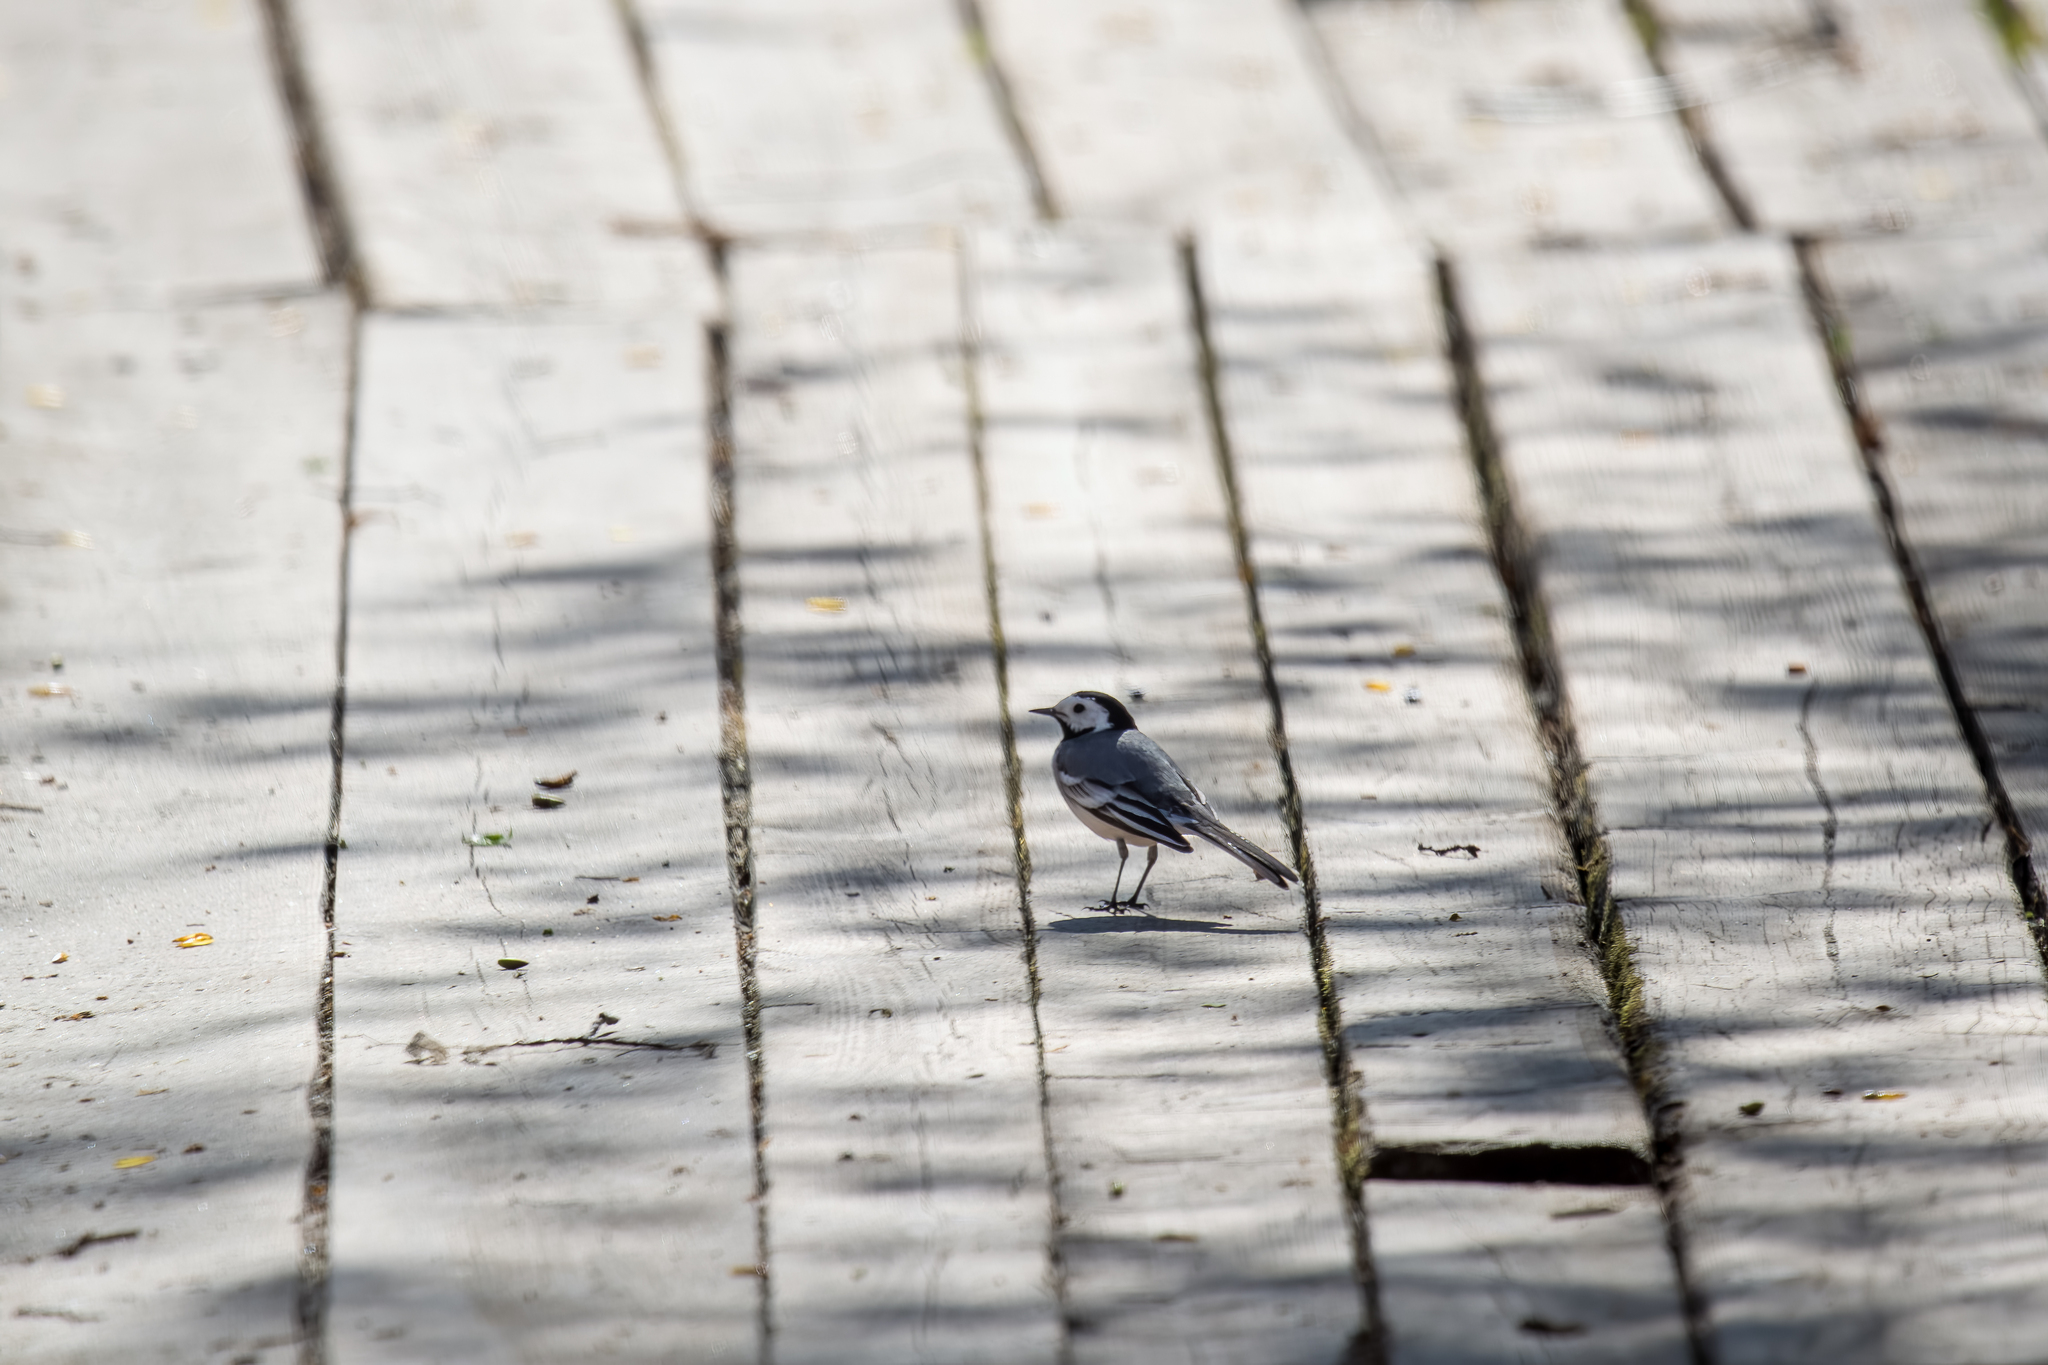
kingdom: Animalia
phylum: Chordata
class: Aves
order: Passeriformes
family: Motacillidae
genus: Motacilla
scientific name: Motacilla alba
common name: White wagtail
